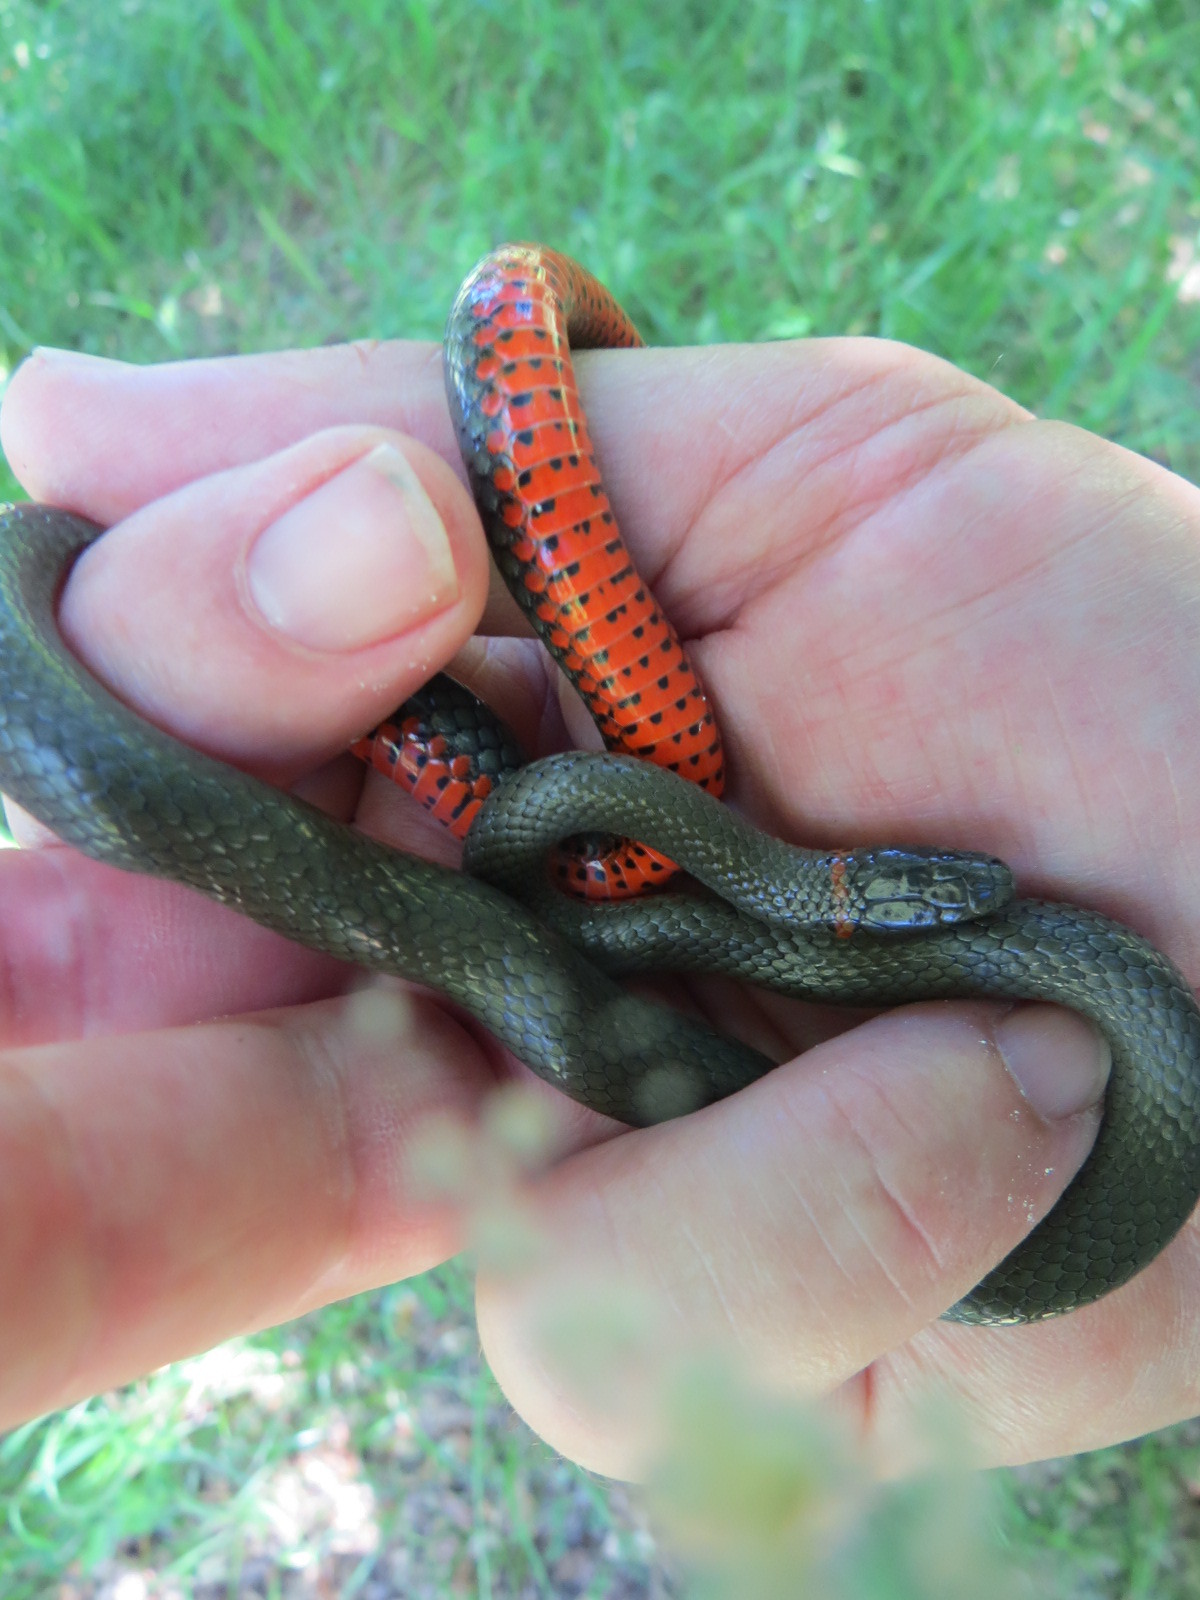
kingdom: Animalia
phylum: Chordata
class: Squamata
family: Colubridae
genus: Diadophis
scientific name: Diadophis punctatus
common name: Ringneck snake
